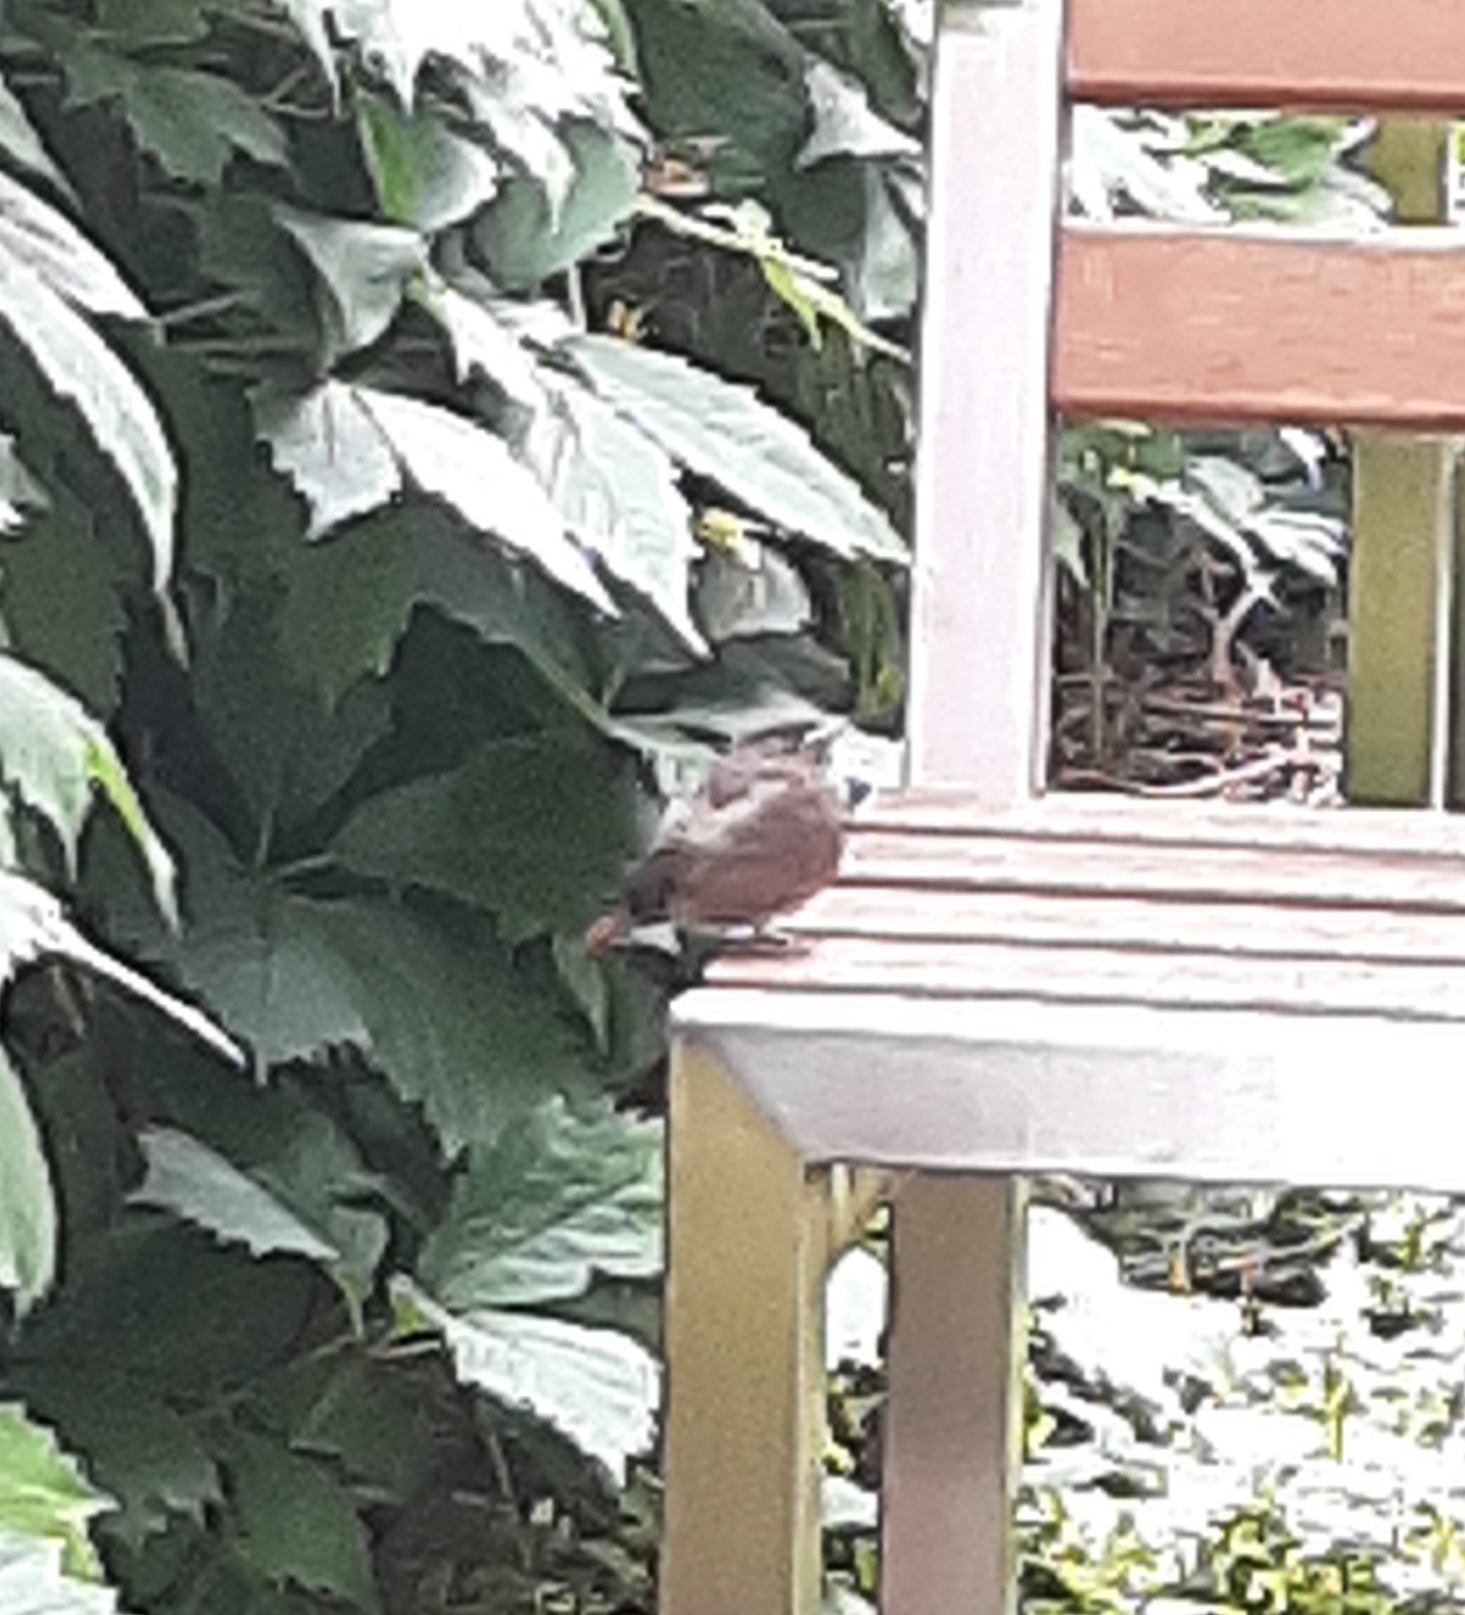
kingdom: Animalia
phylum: Chordata
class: Aves
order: Passeriformes
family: Muscicapidae
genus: Phoenicurus
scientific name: Phoenicurus ochruros
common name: Black redstart
